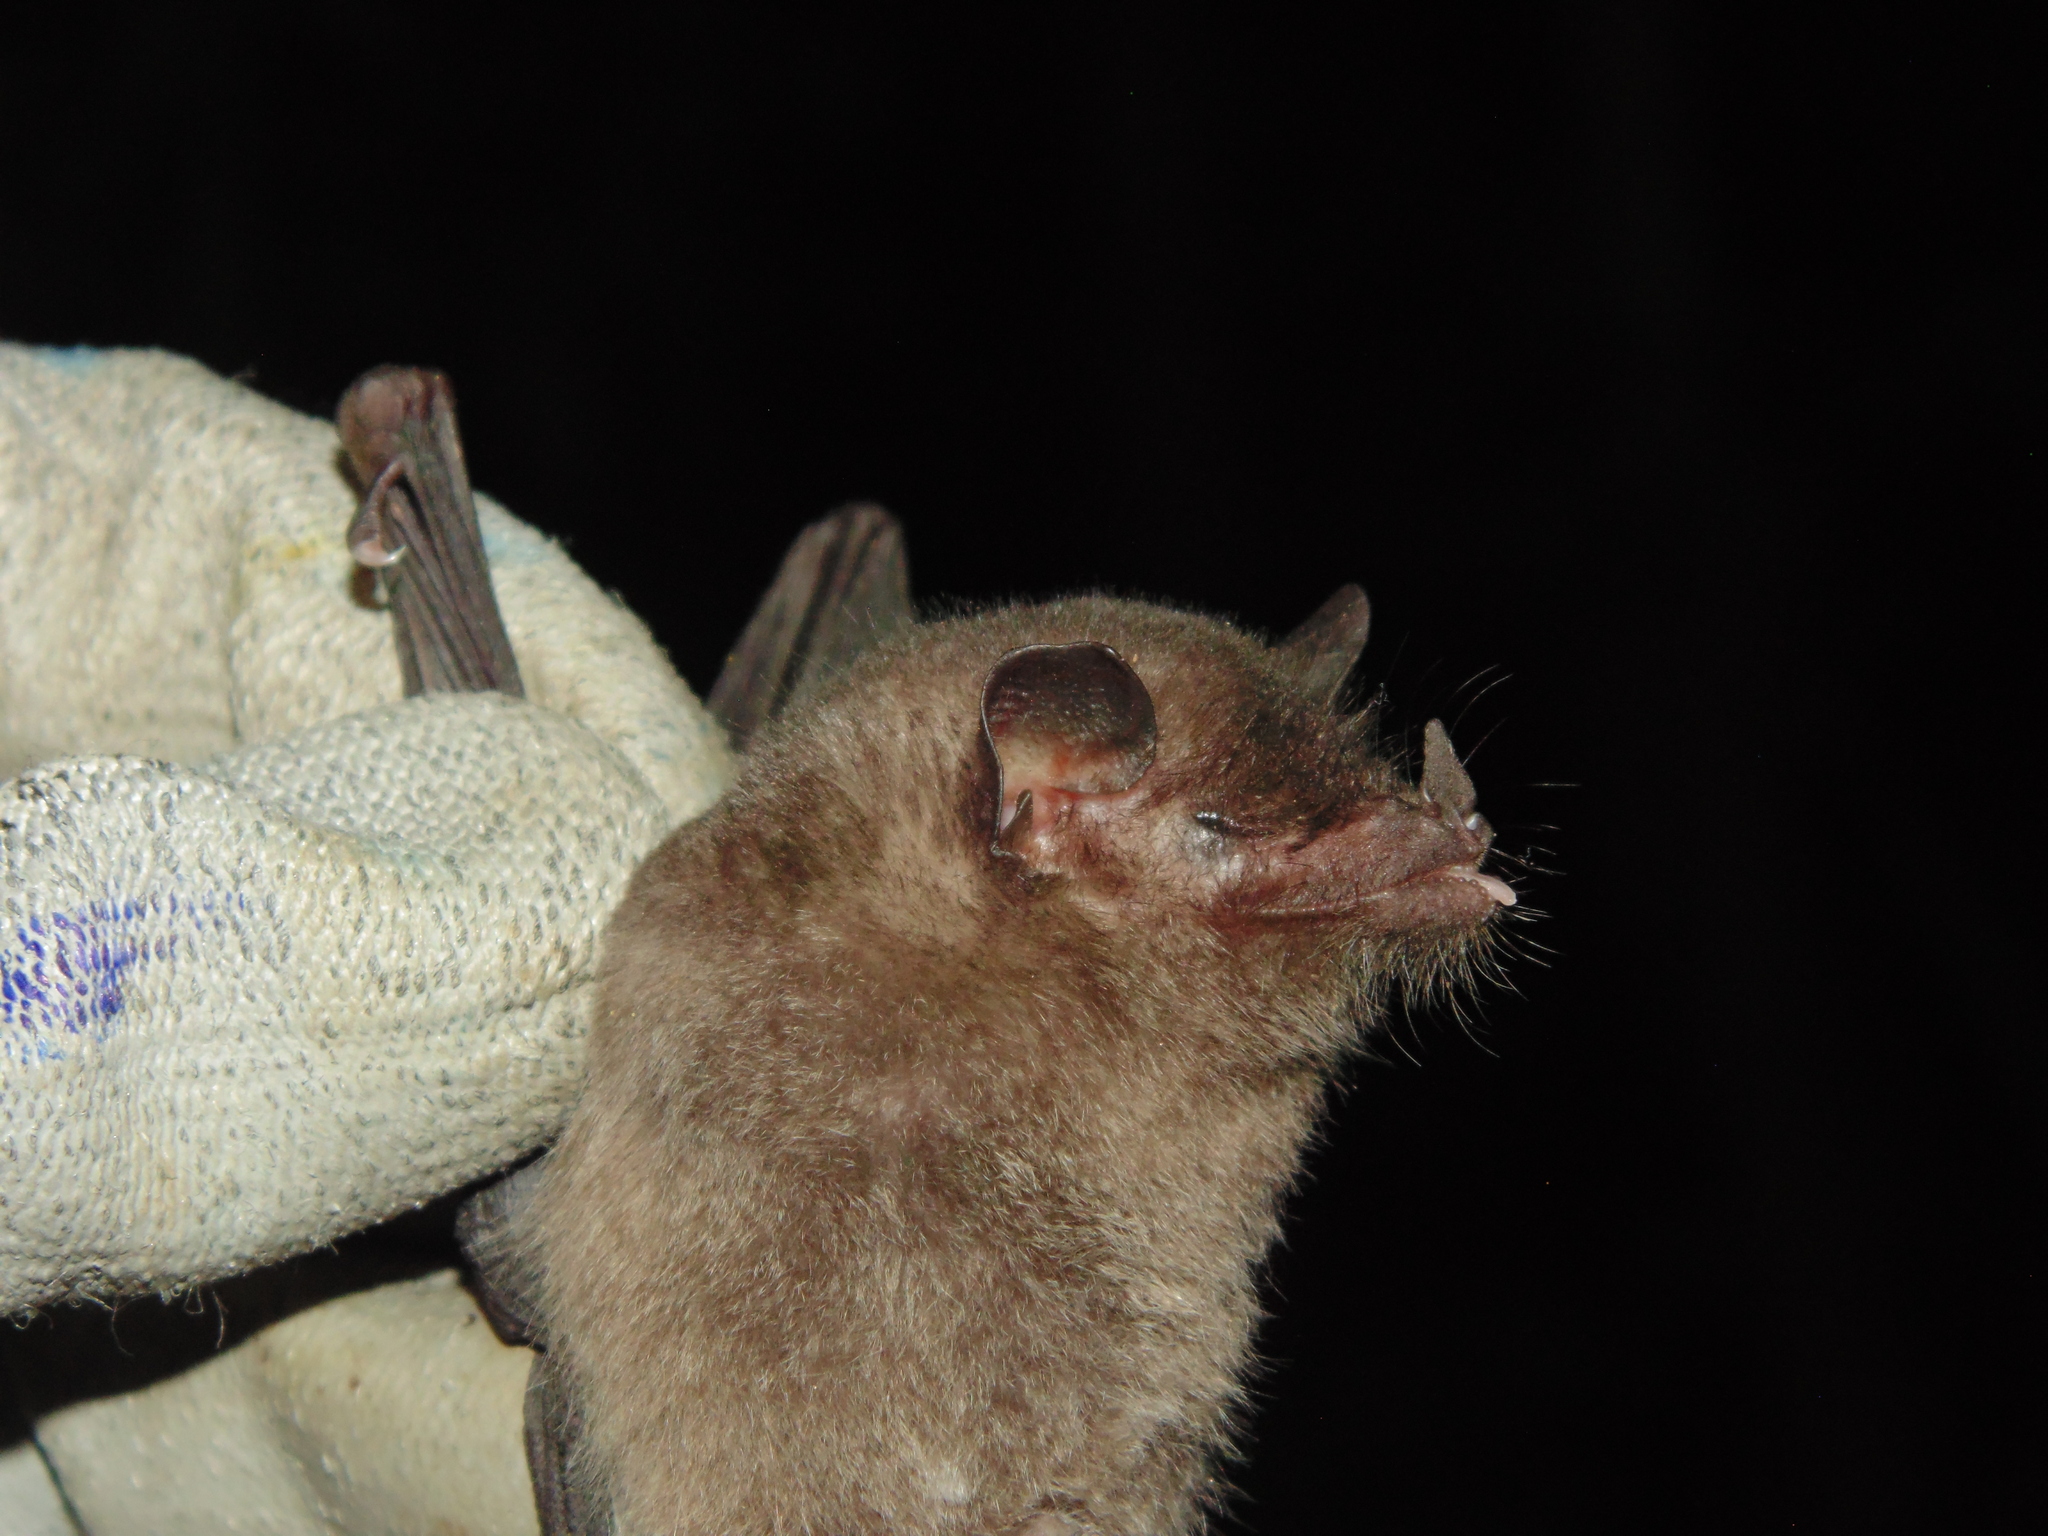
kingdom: Animalia
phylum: Chordata
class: Mammalia
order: Chiroptera
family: Phyllostomidae
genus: Anoura
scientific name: Anoura geoffroyi
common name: Geoffroy's tailless bat
